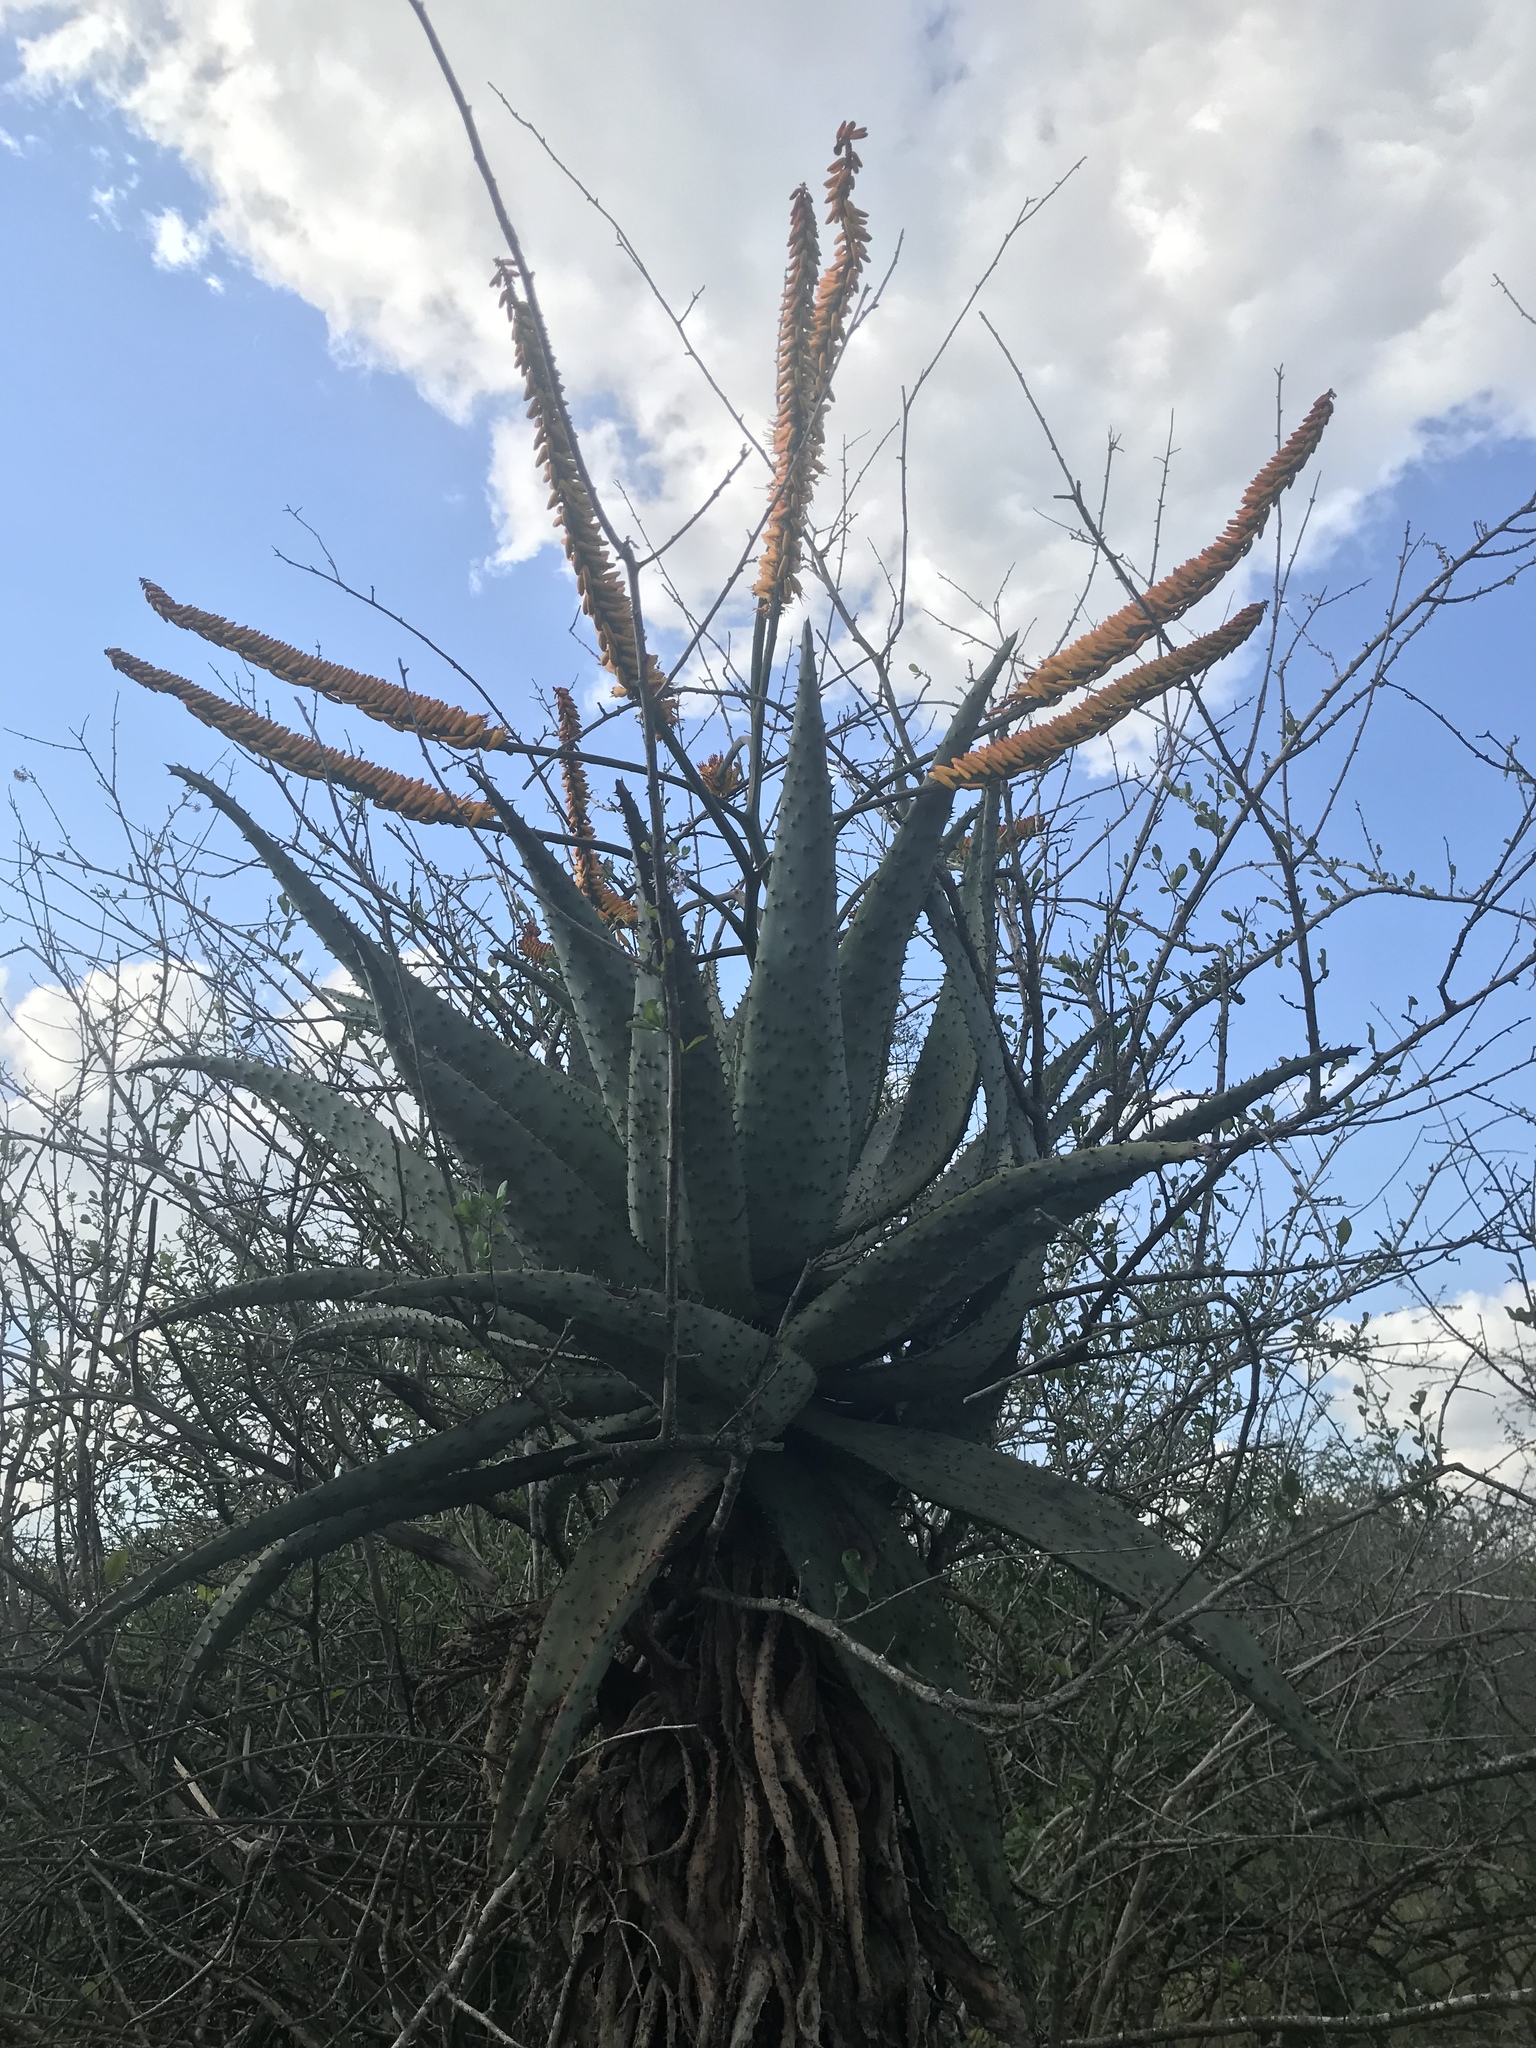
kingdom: Plantae
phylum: Tracheophyta
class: Liliopsida
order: Asparagales
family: Asphodelaceae
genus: Aloe
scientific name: Aloe marlothii
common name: Flat-flowered aloe
